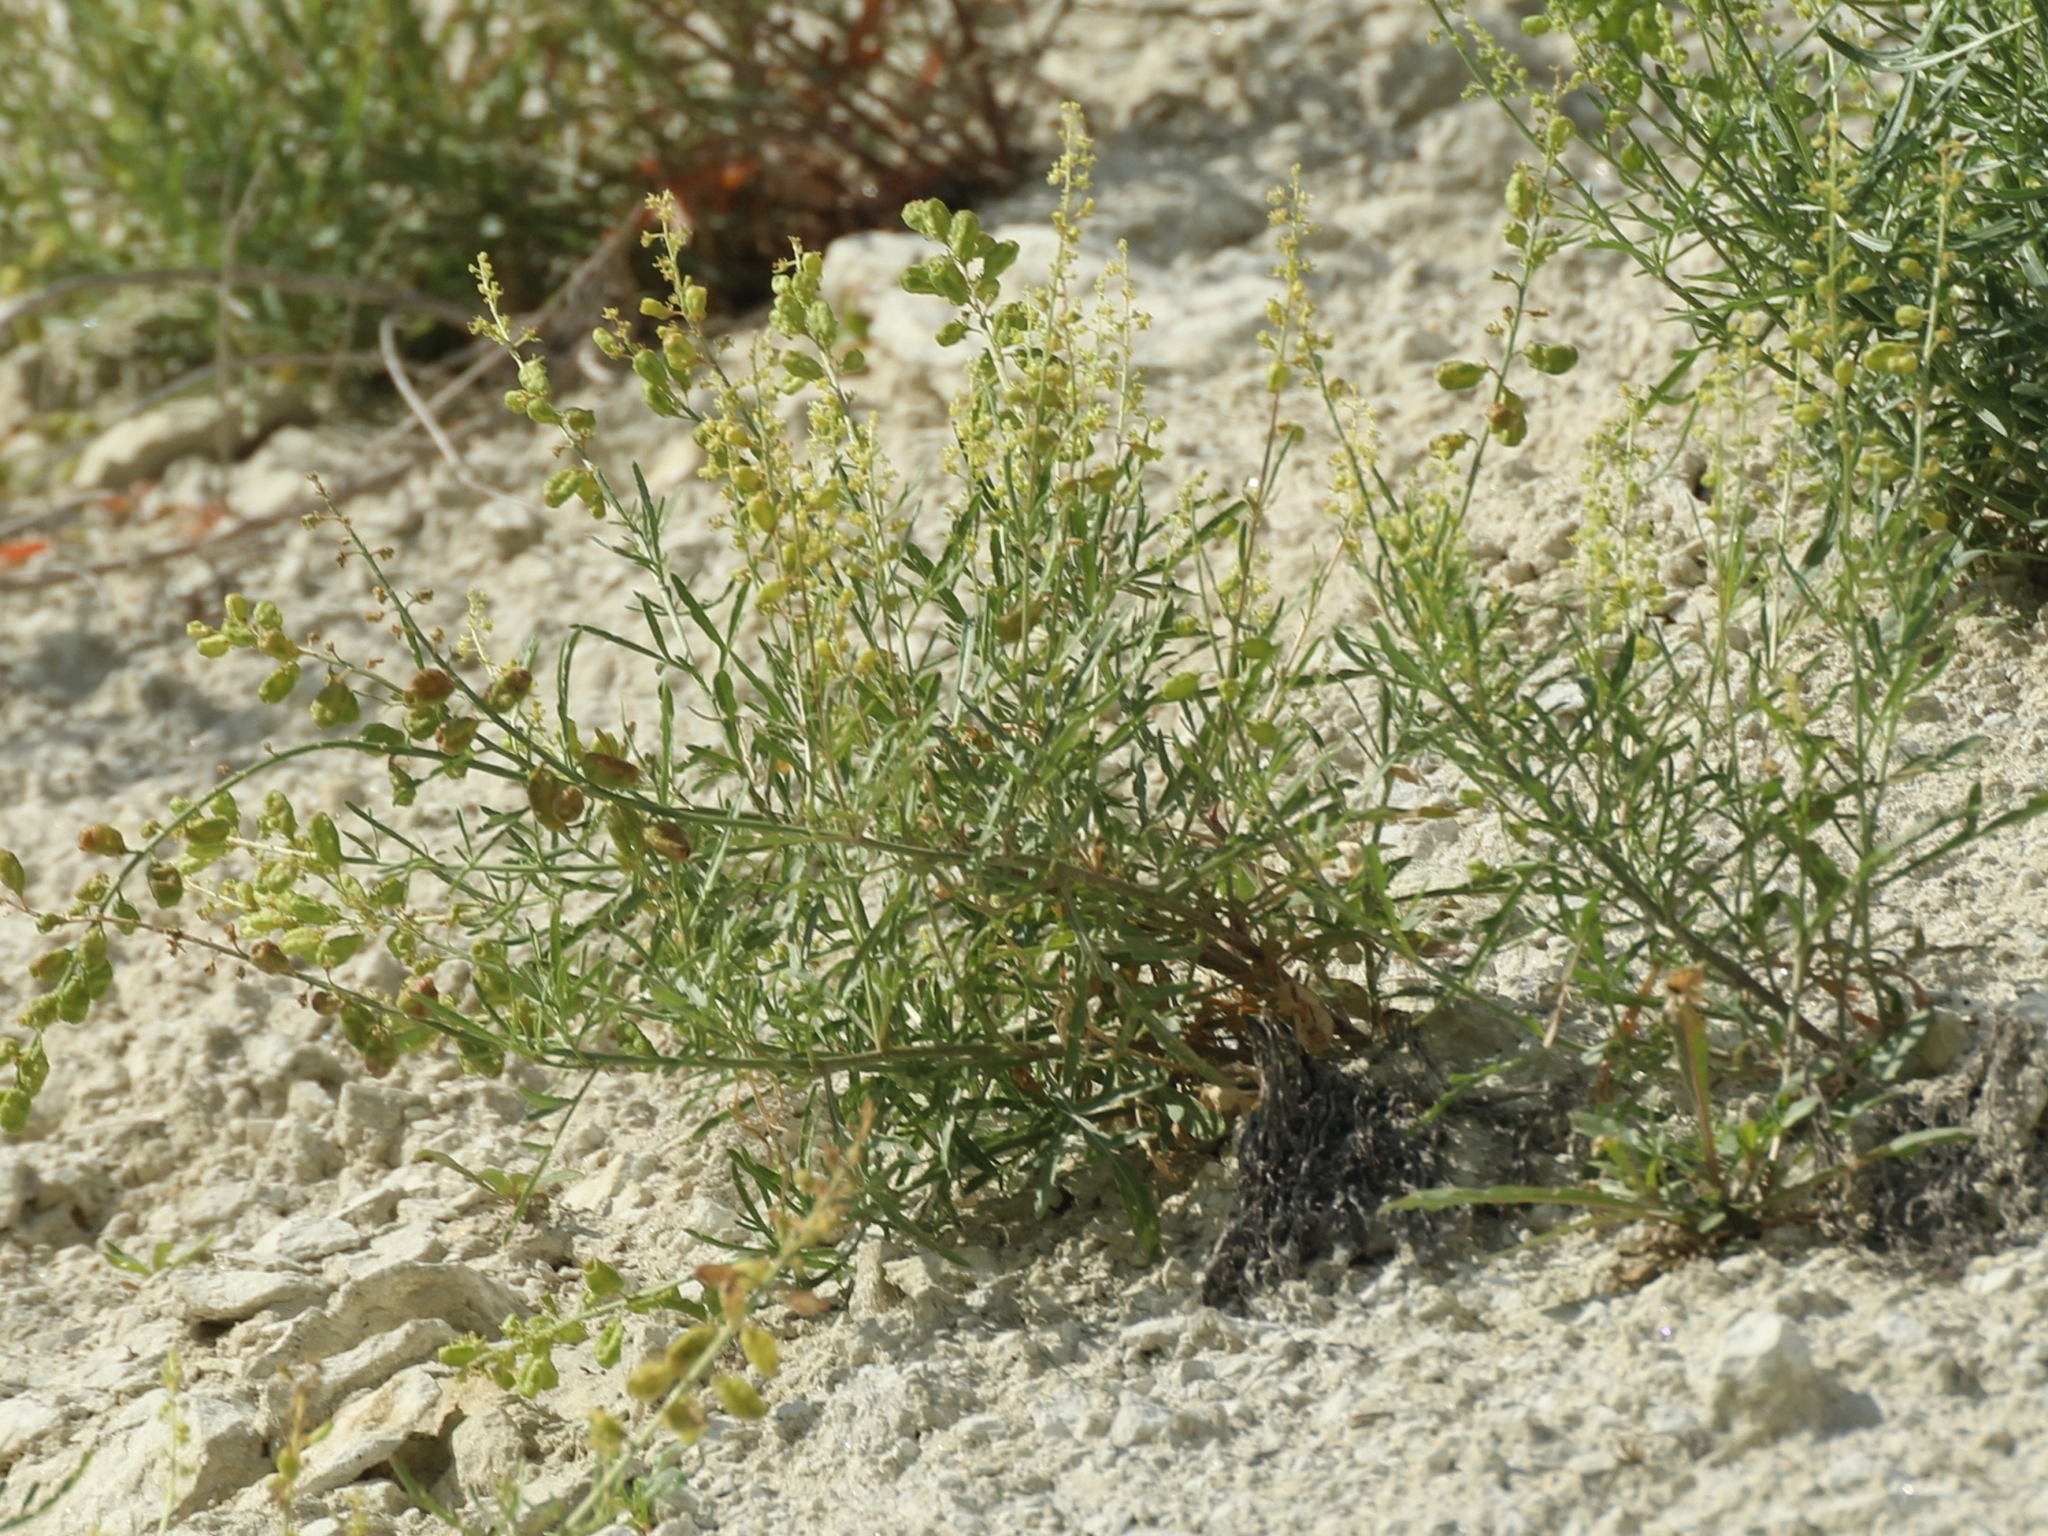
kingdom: Plantae
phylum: Tracheophyta
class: Magnoliopsida
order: Brassicales
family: Resedaceae
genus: Reseda
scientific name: Reseda lutea
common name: Wild mignonette
